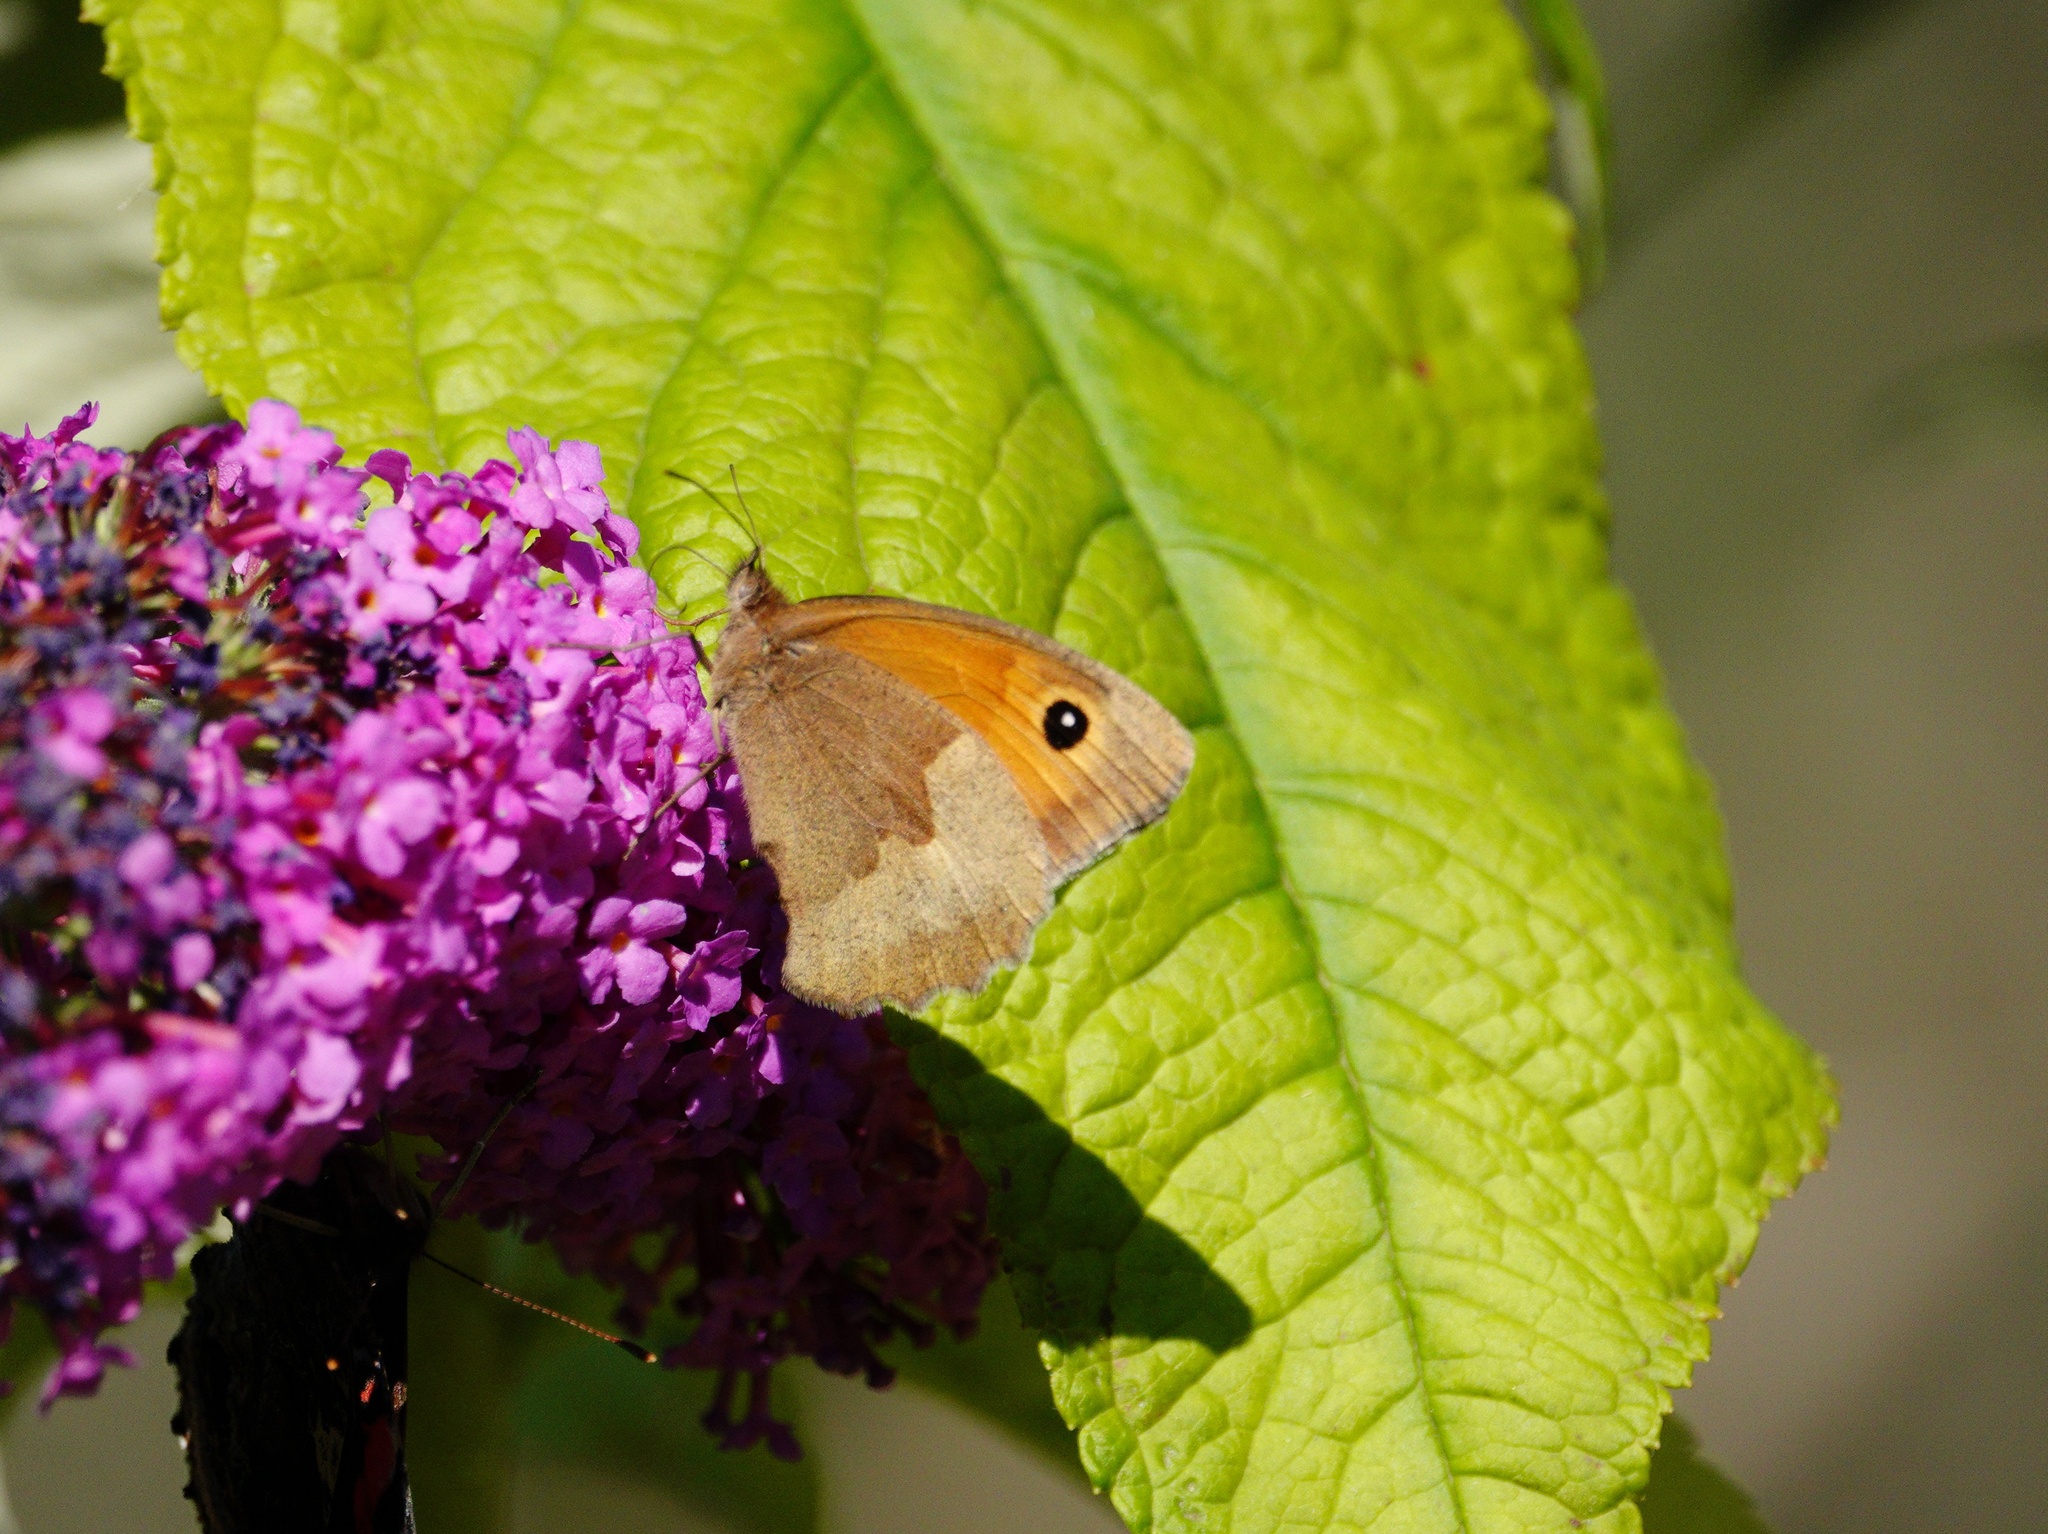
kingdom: Animalia
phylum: Arthropoda
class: Insecta
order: Lepidoptera
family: Nymphalidae
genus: Maniola
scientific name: Maniola jurtina
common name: Meadow brown
